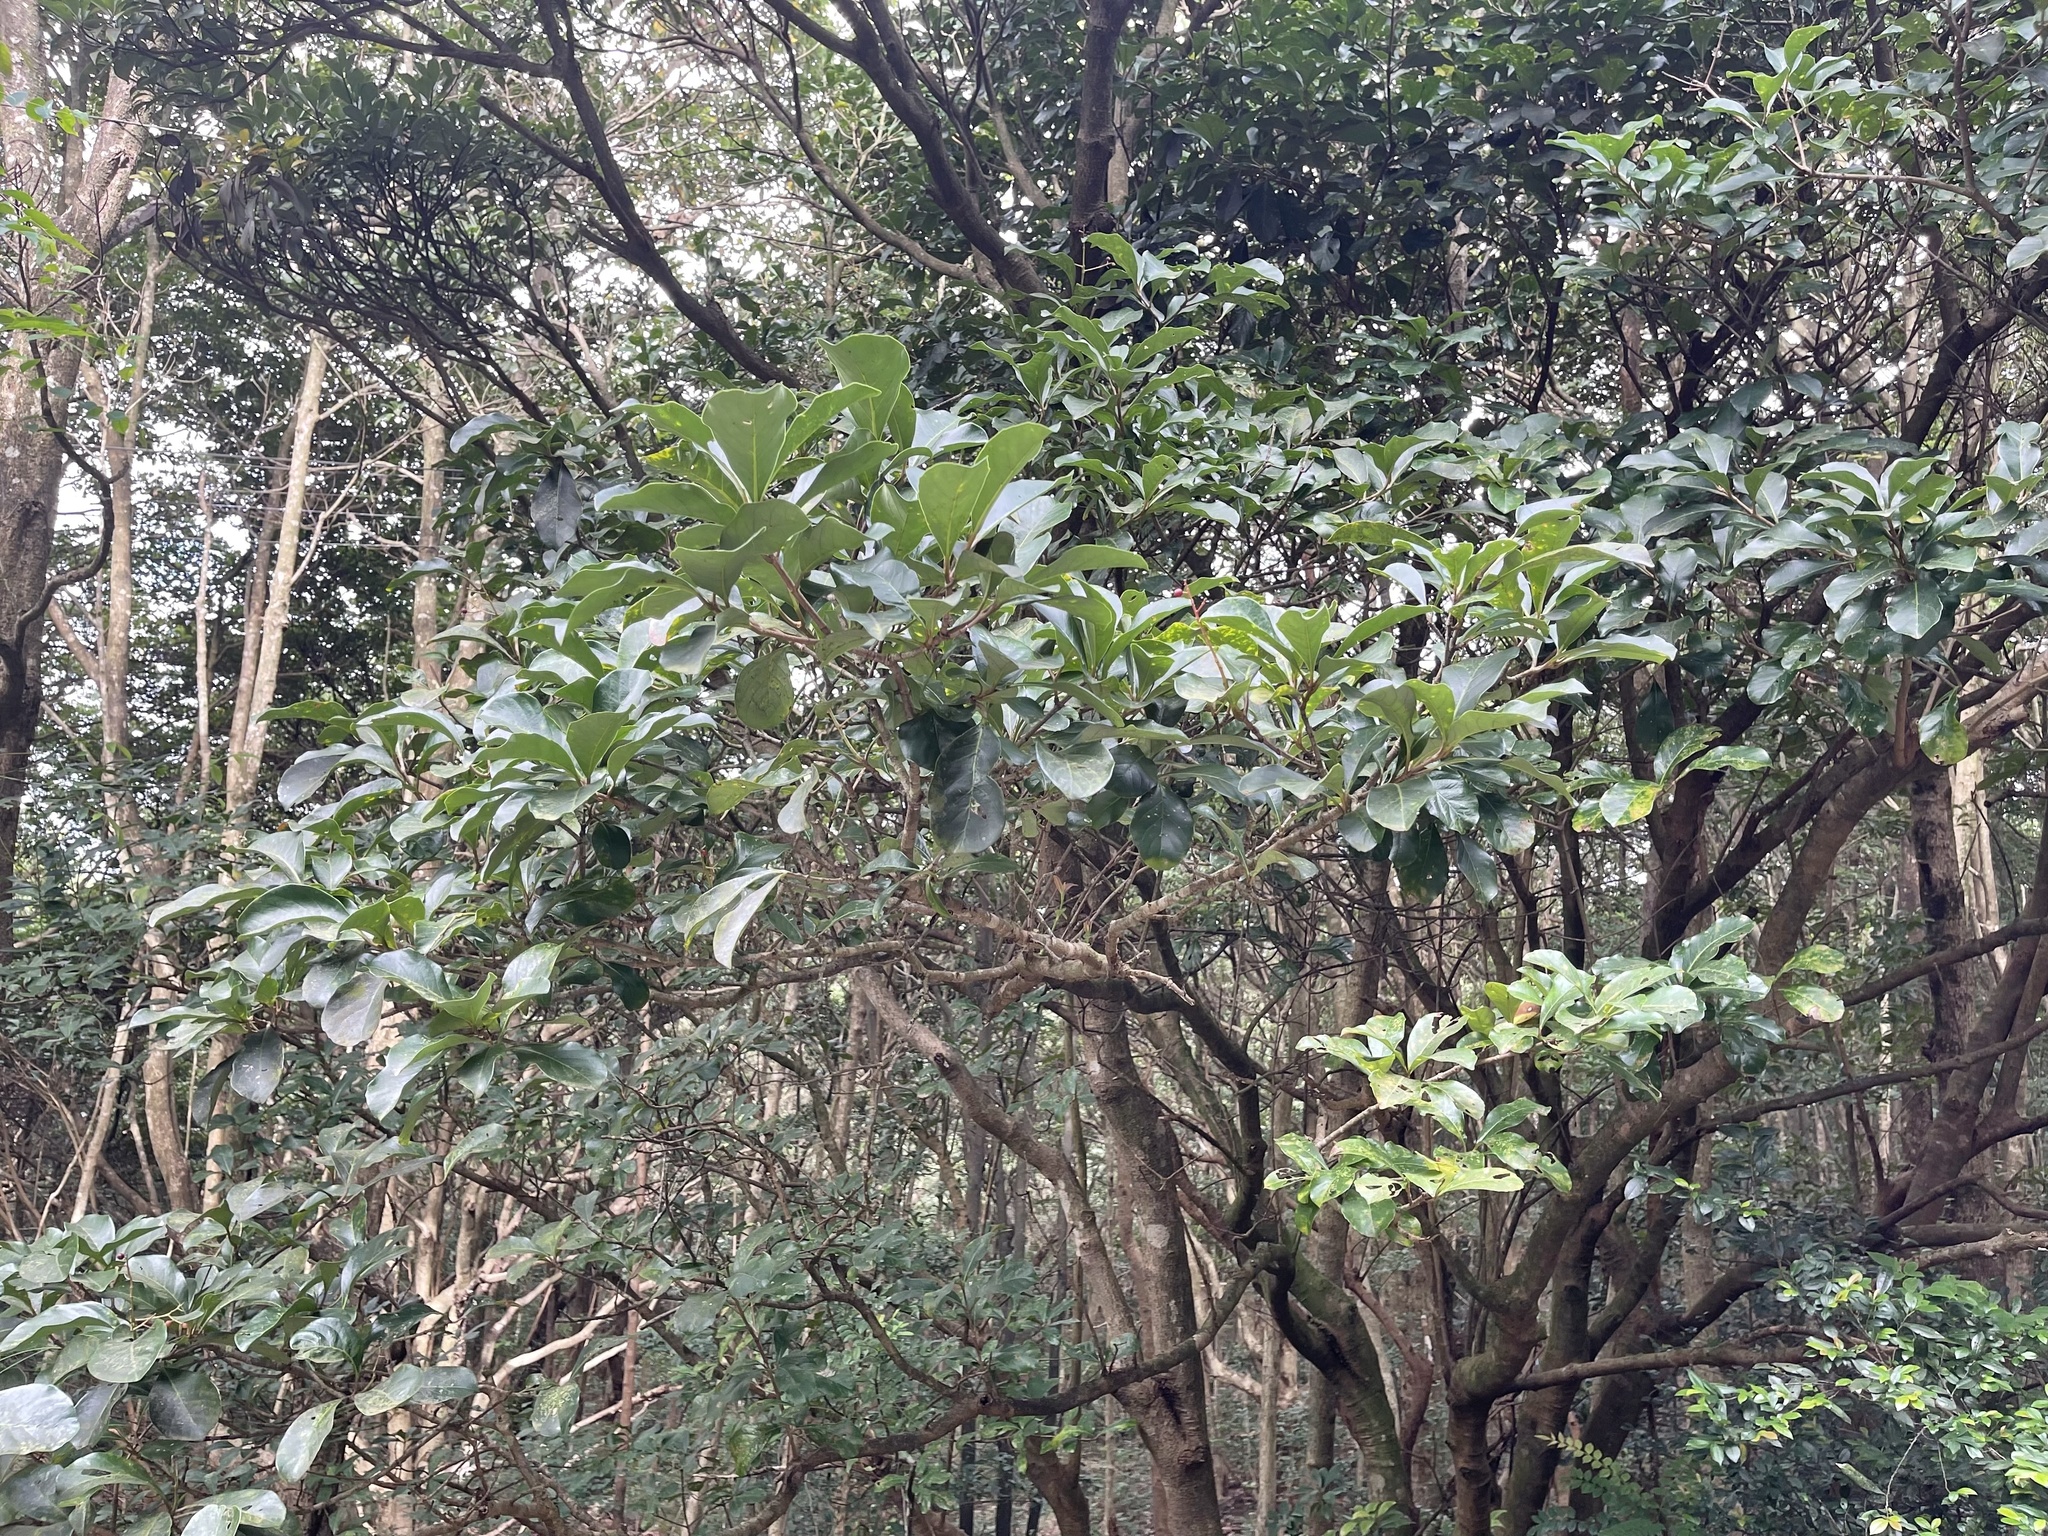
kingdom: Plantae
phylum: Tracheophyta
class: Magnoliopsida
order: Dipsacales
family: Viburnaceae
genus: Viburnum
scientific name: Viburnum odoratissimum
